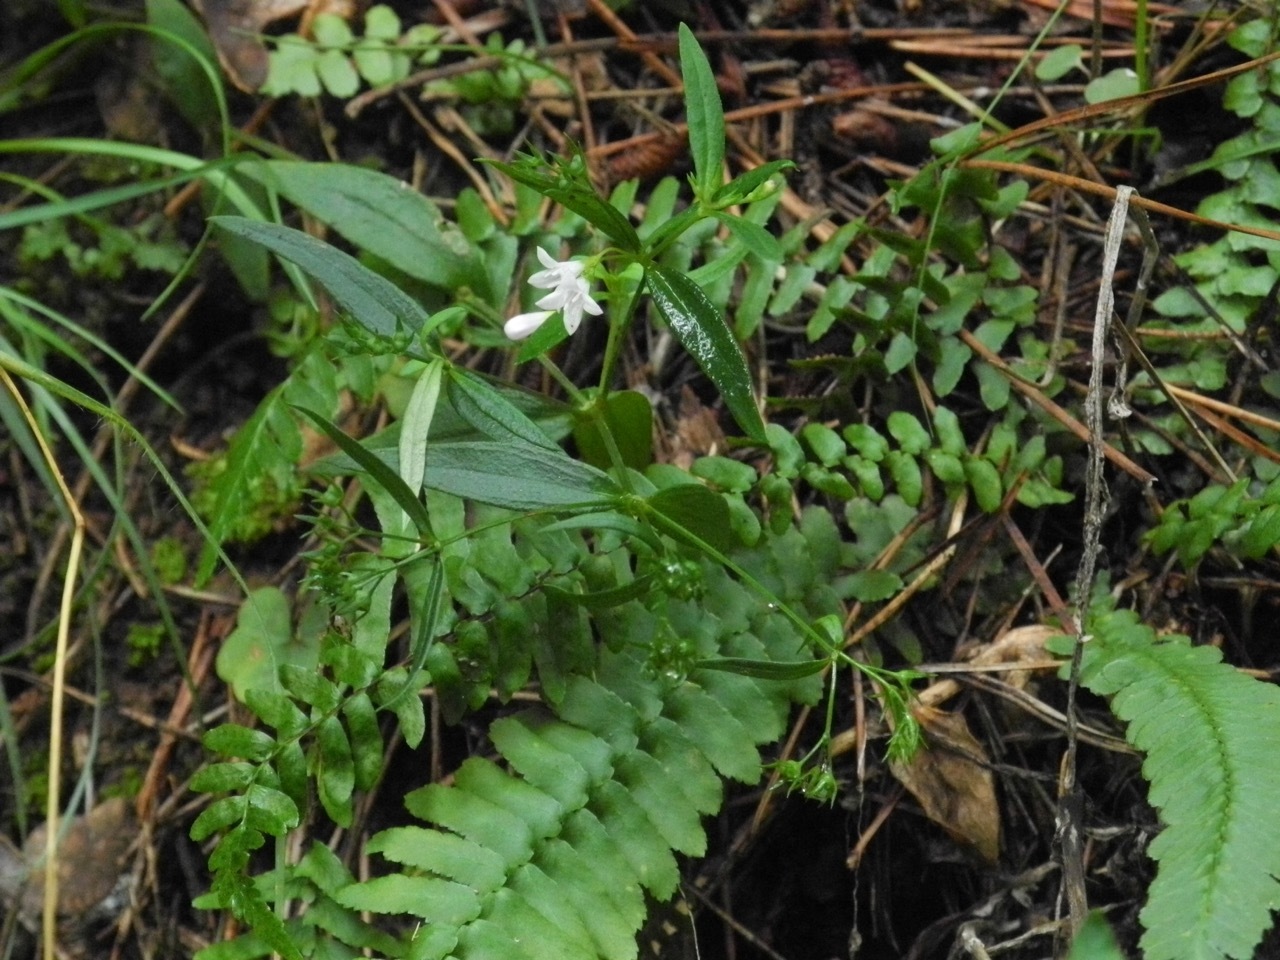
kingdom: Plantae
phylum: Tracheophyta
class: Magnoliopsida
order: Gentianales
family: Rubiaceae
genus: Houstonia
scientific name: Houstonia longifolia
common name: Long-leaved bluets
